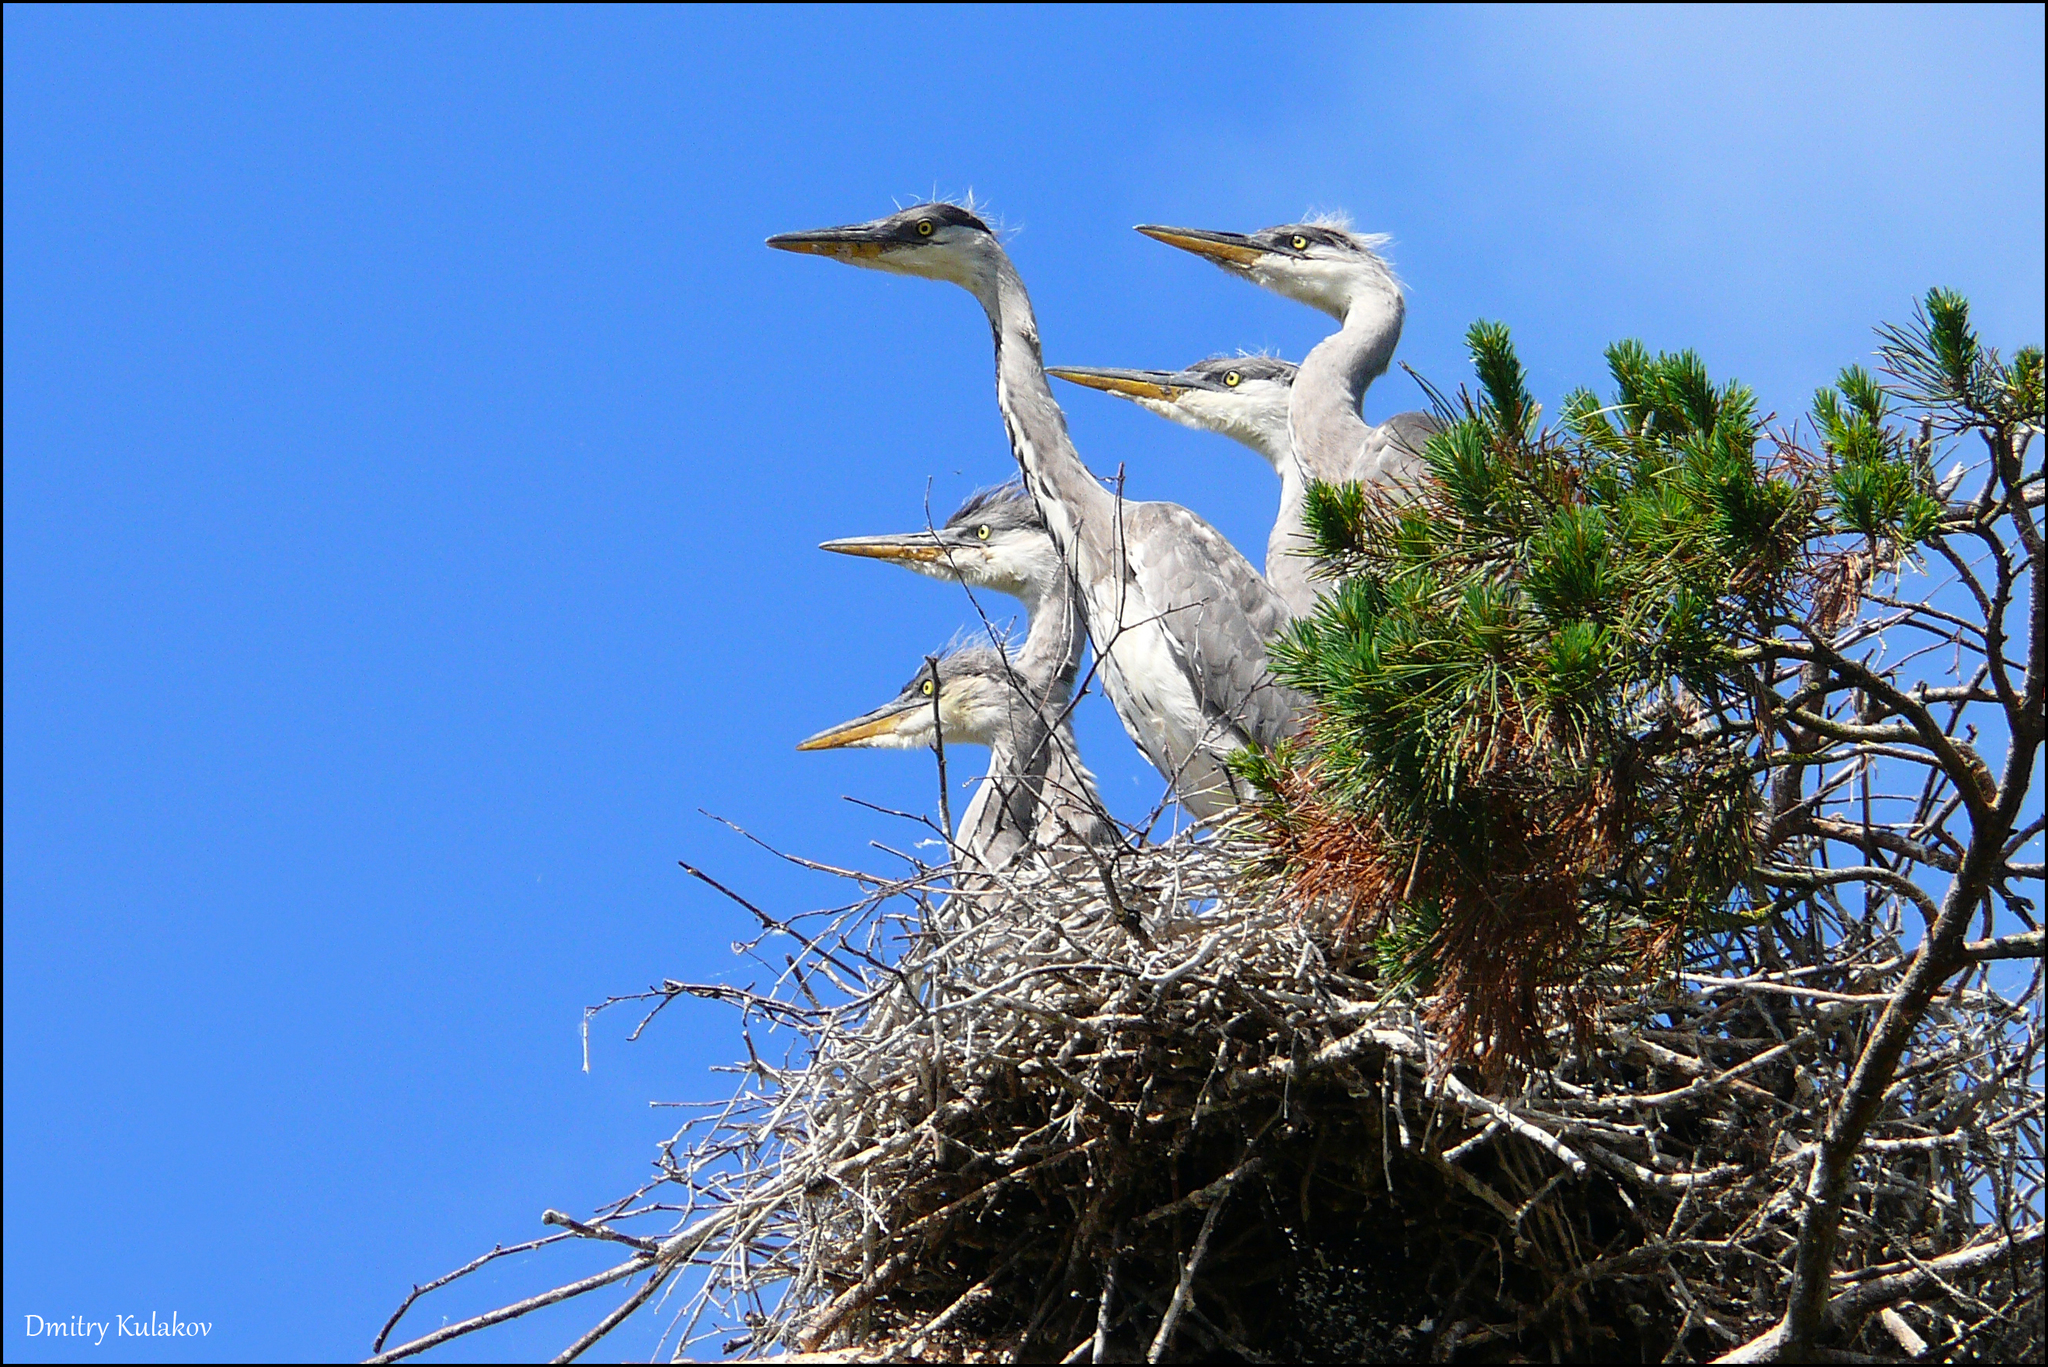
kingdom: Animalia
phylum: Chordata
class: Aves
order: Pelecaniformes
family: Ardeidae
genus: Ardea
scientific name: Ardea cinerea
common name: Grey heron
